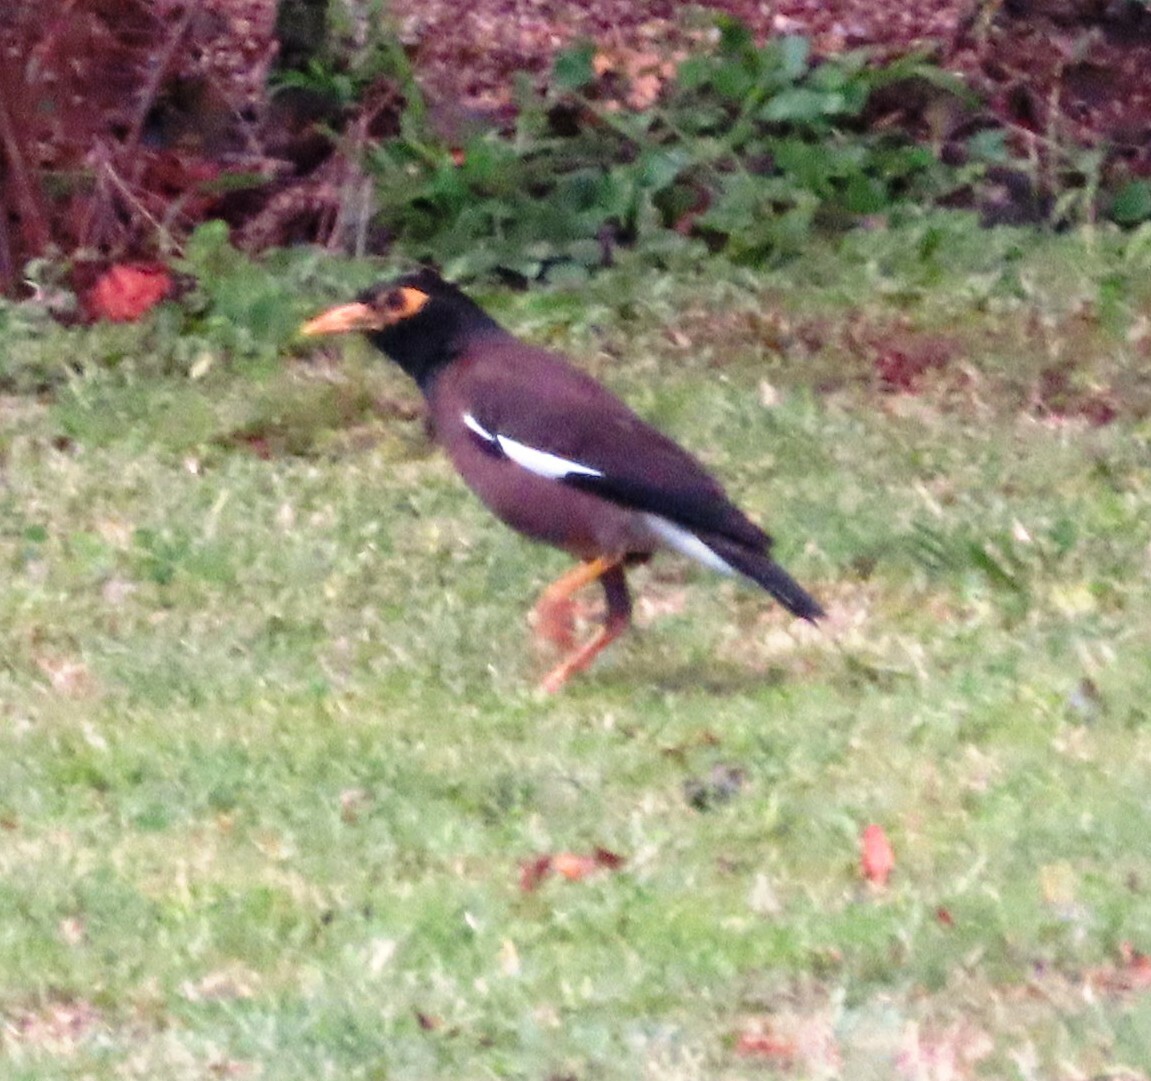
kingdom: Animalia
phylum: Chordata
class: Aves
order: Passeriformes
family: Sturnidae
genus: Acridotheres
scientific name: Acridotheres tristis
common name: Common myna
